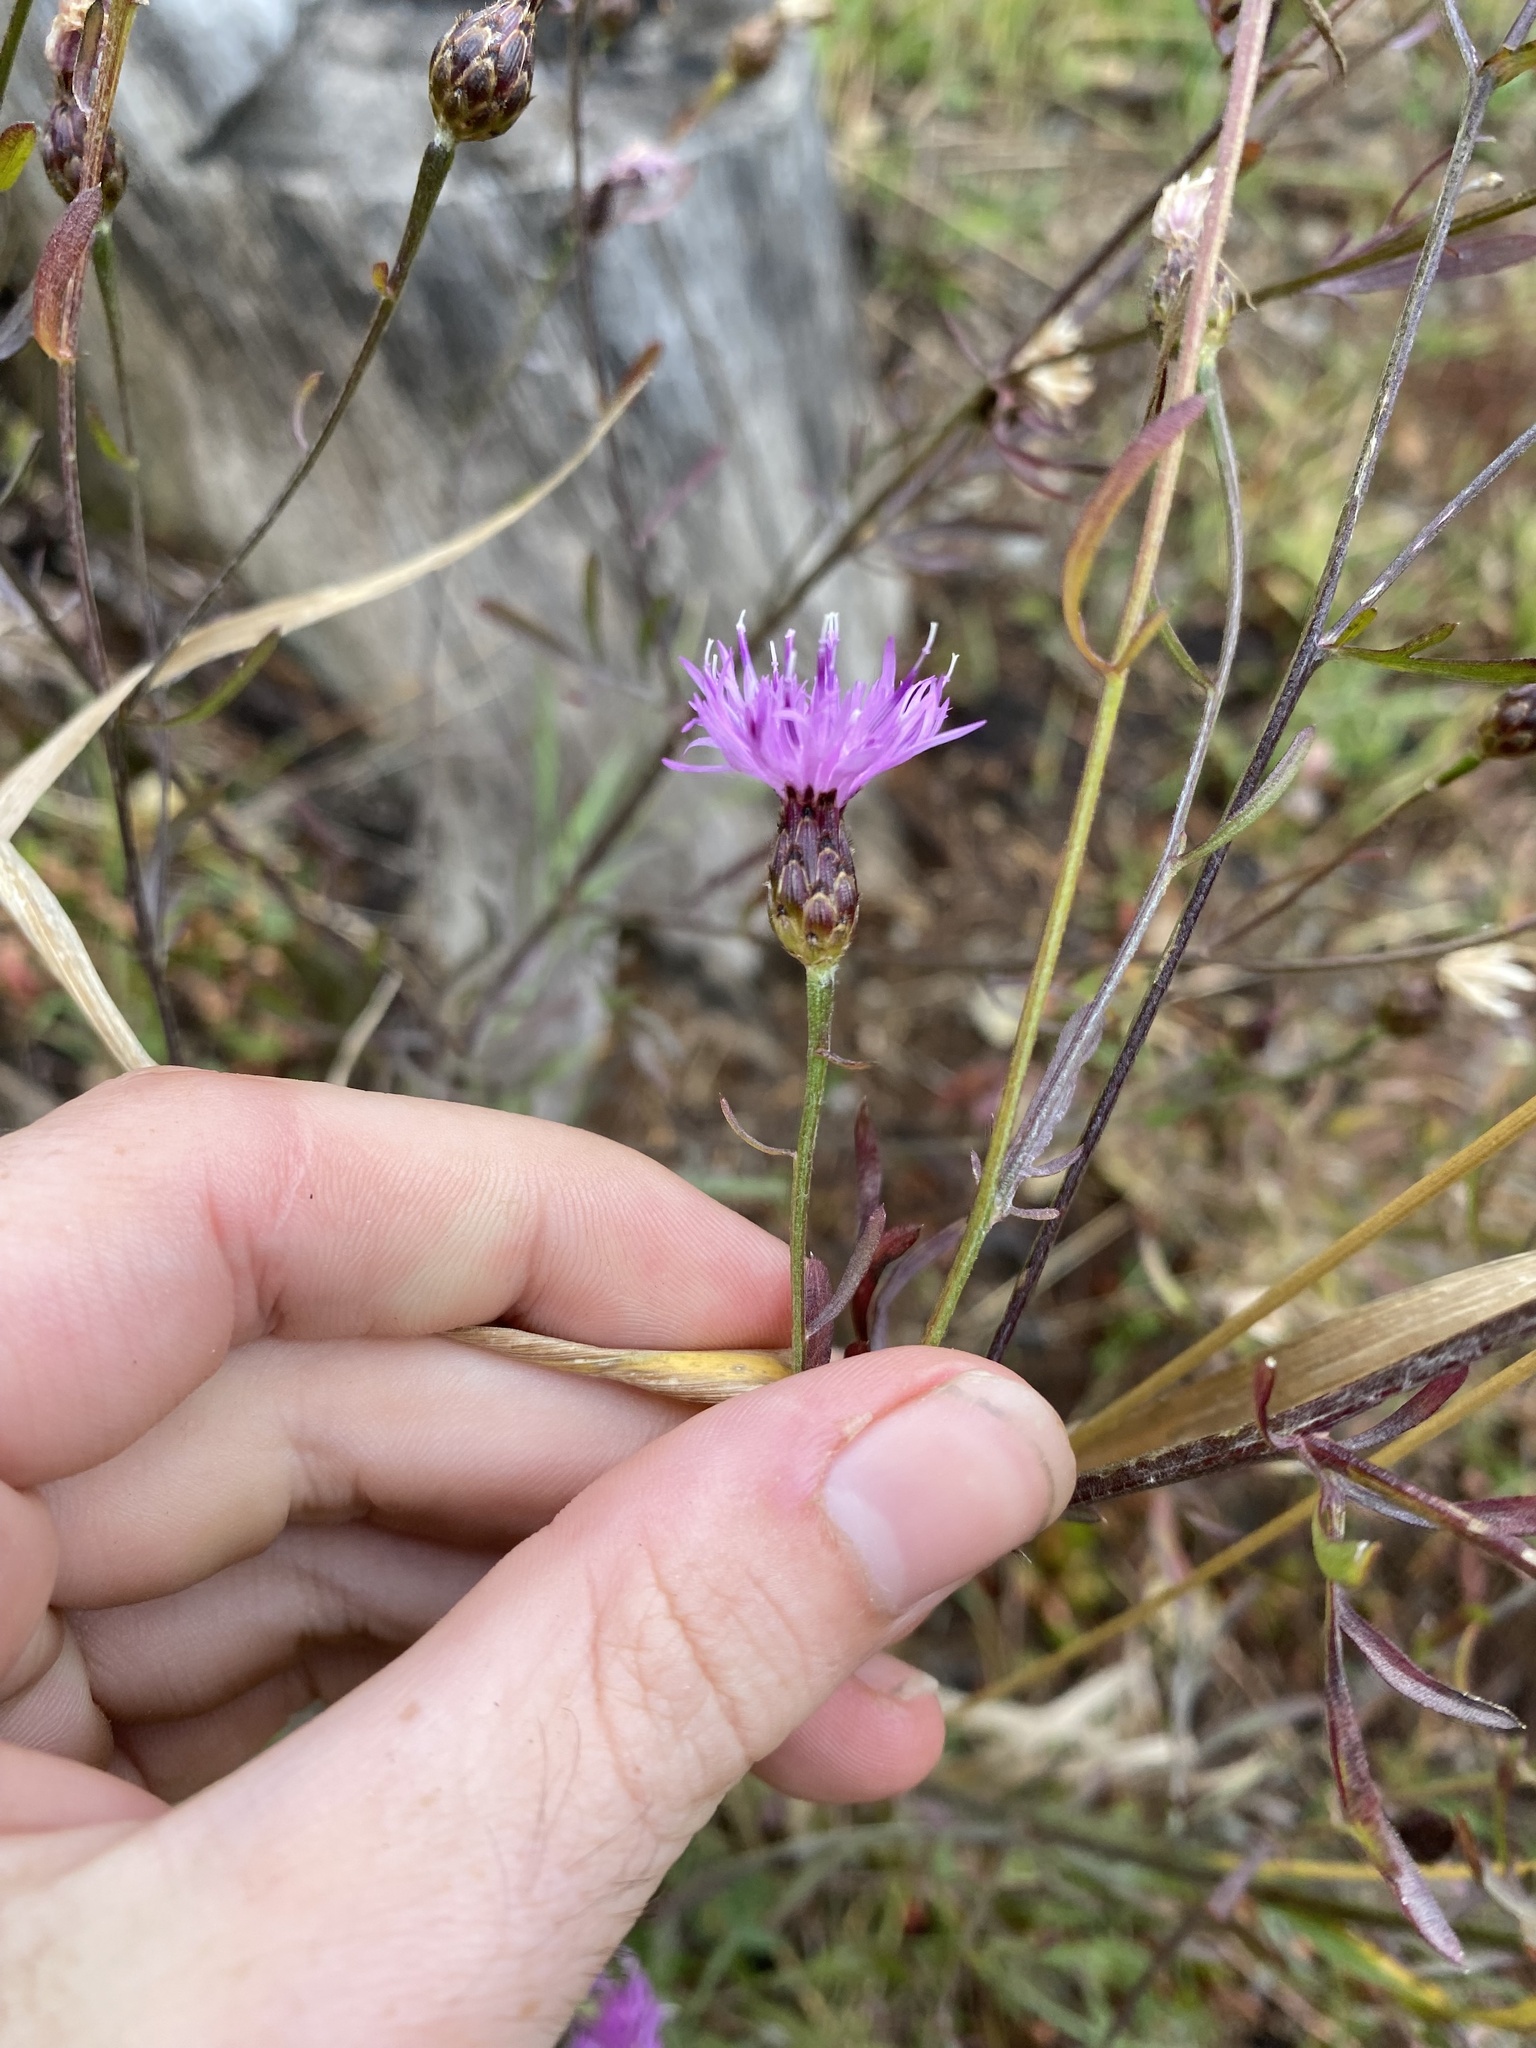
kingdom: Plantae
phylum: Tracheophyta
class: Magnoliopsida
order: Asterales
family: Asteraceae
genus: Centaurea
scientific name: Centaurea stoebe
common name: Spotted knapweed
